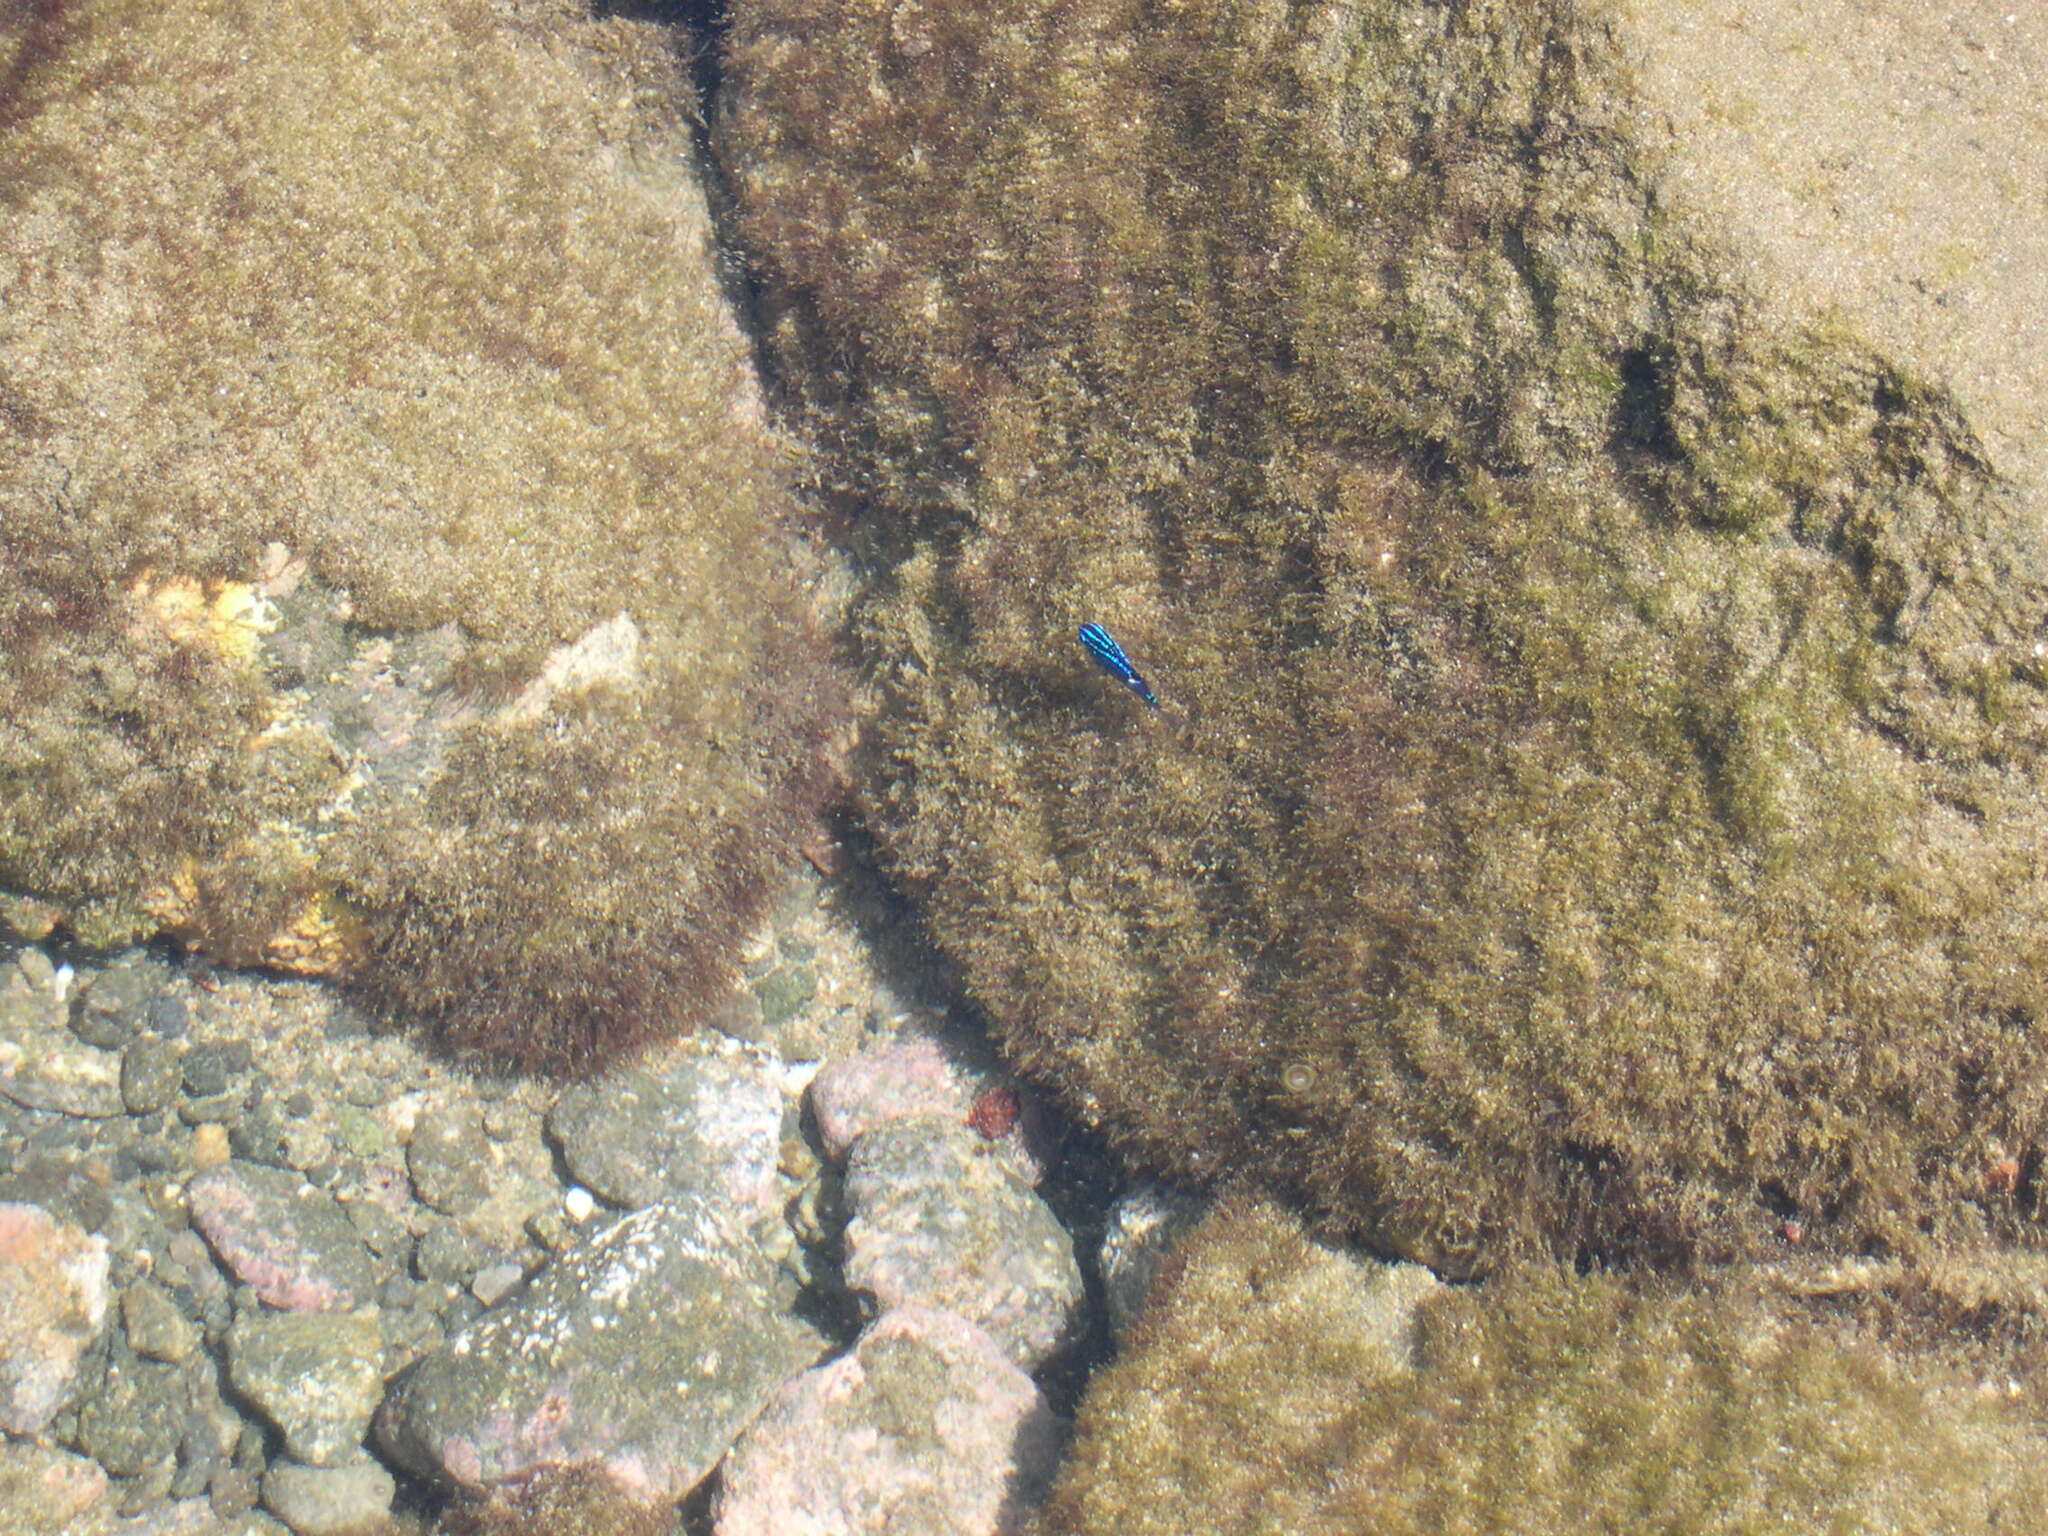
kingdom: Animalia
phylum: Chordata
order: Perciformes
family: Pomacentridae
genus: Stegastes
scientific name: Stegastes acapulcoensis
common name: Acapulco damselfish
